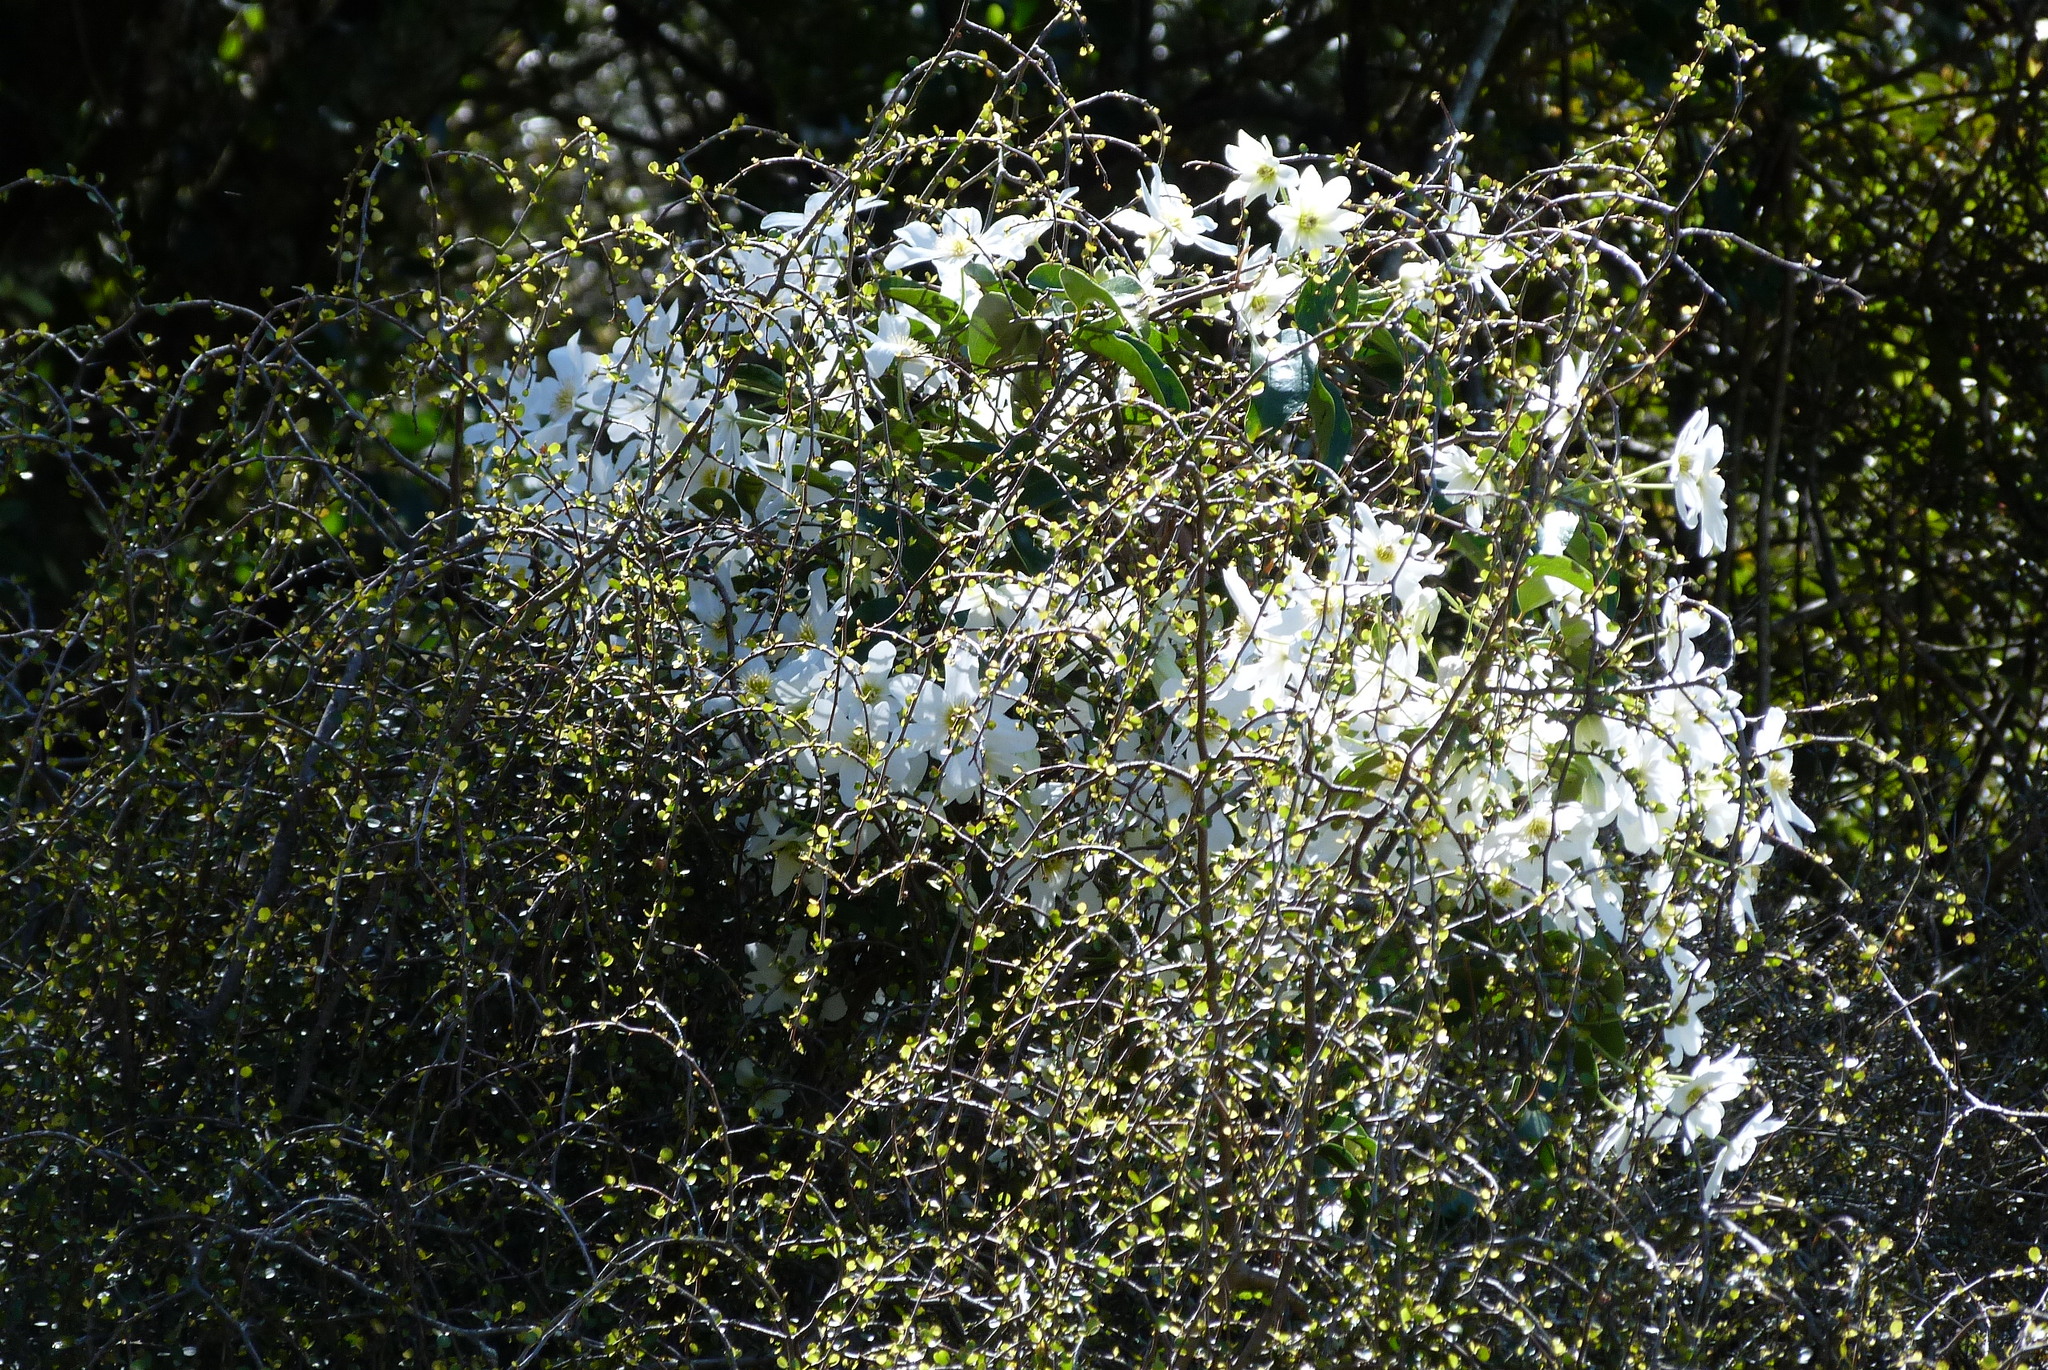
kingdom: Plantae
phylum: Tracheophyta
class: Magnoliopsida
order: Ranunculales
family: Ranunculaceae
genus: Clematis
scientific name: Clematis paniculata
